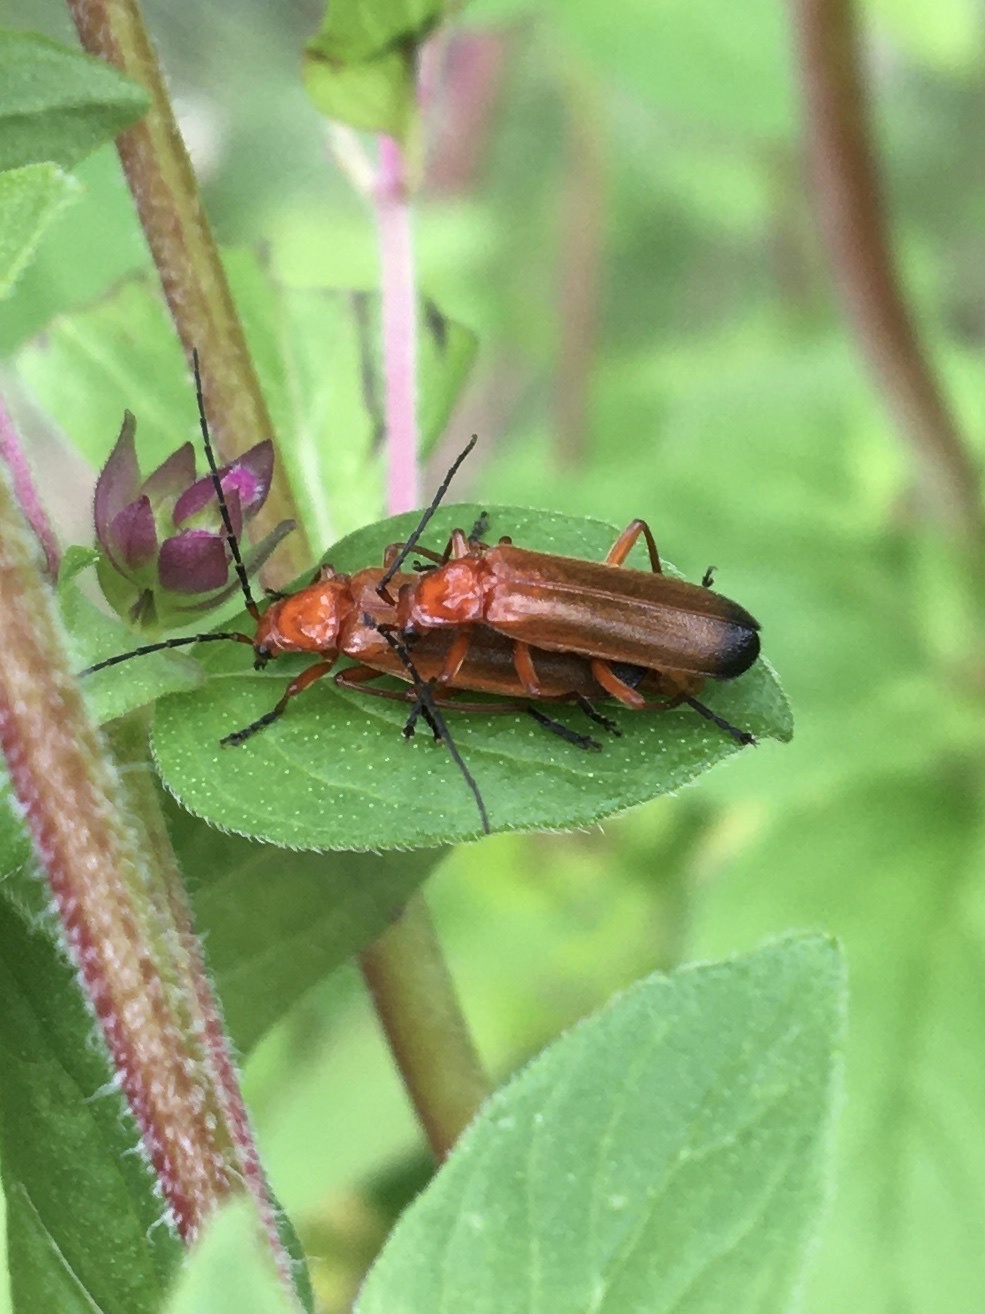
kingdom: Animalia
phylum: Arthropoda
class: Insecta
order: Coleoptera
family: Cantharidae
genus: Rhagonycha
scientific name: Rhagonycha fulva
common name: Common red soldier beetle
